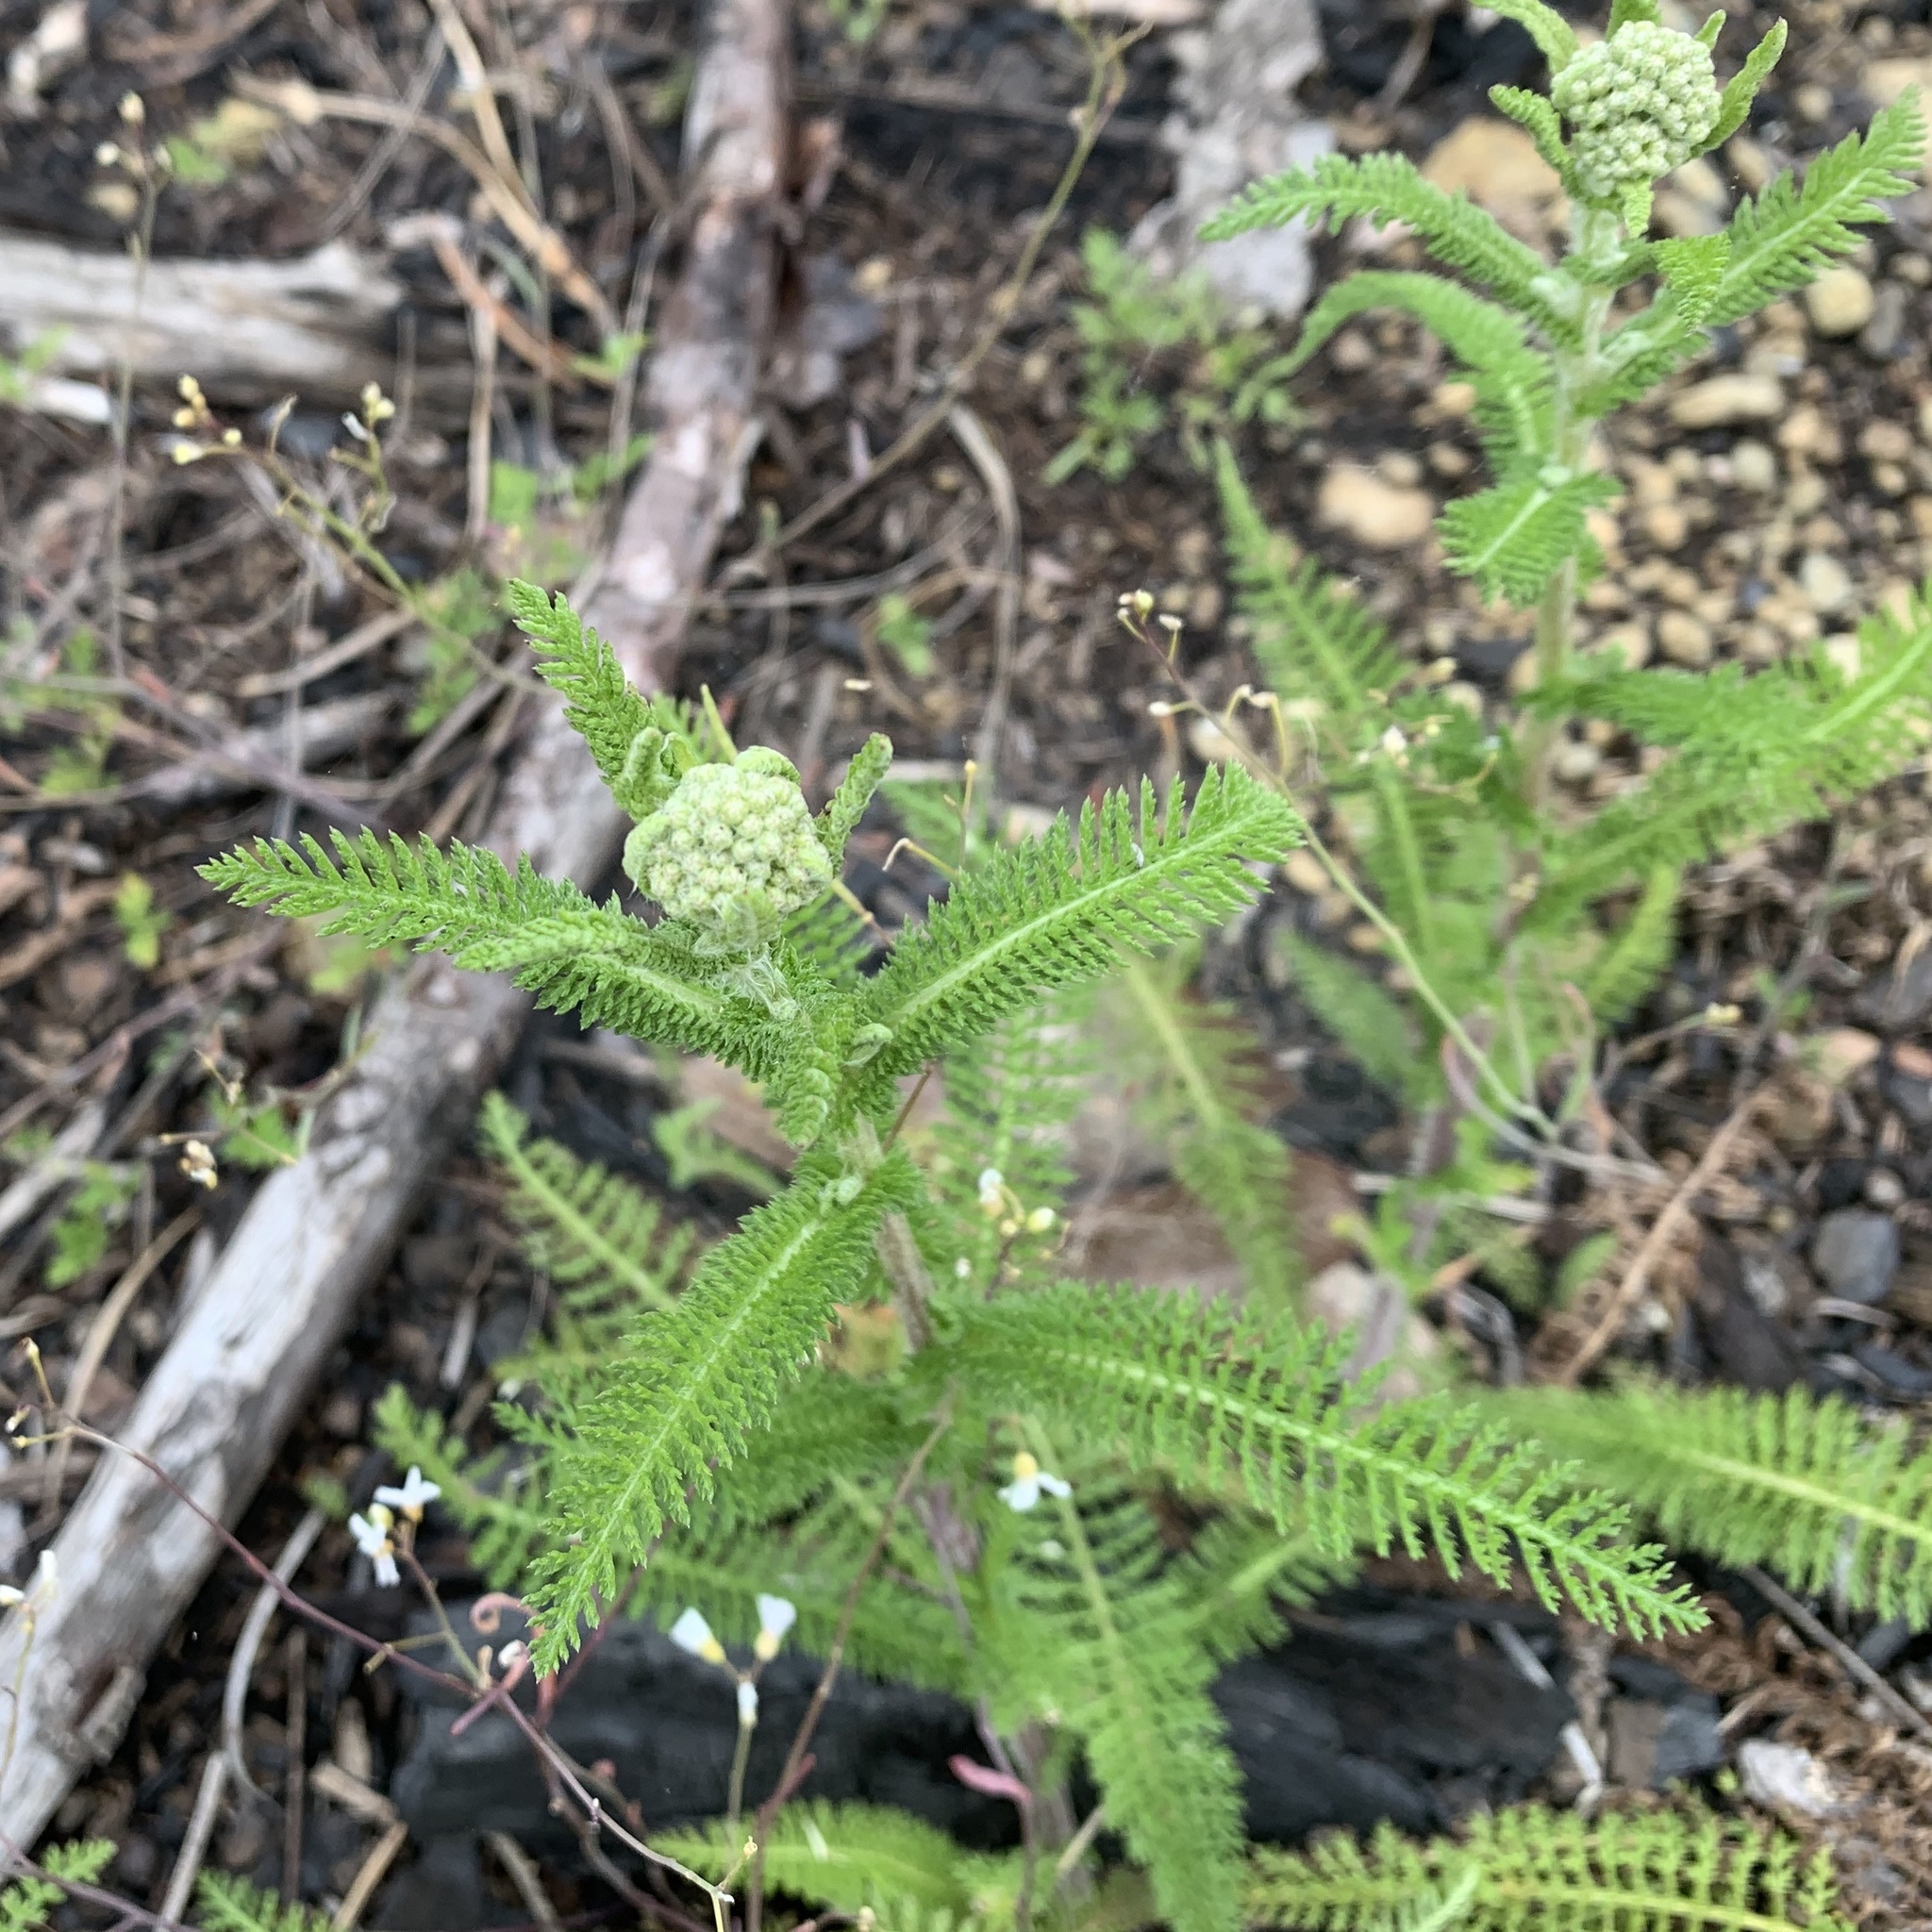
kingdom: Plantae
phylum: Tracheophyta
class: Magnoliopsida
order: Asterales
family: Asteraceae
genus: Achillea
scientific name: Achillea millefolium
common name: Yarrow
